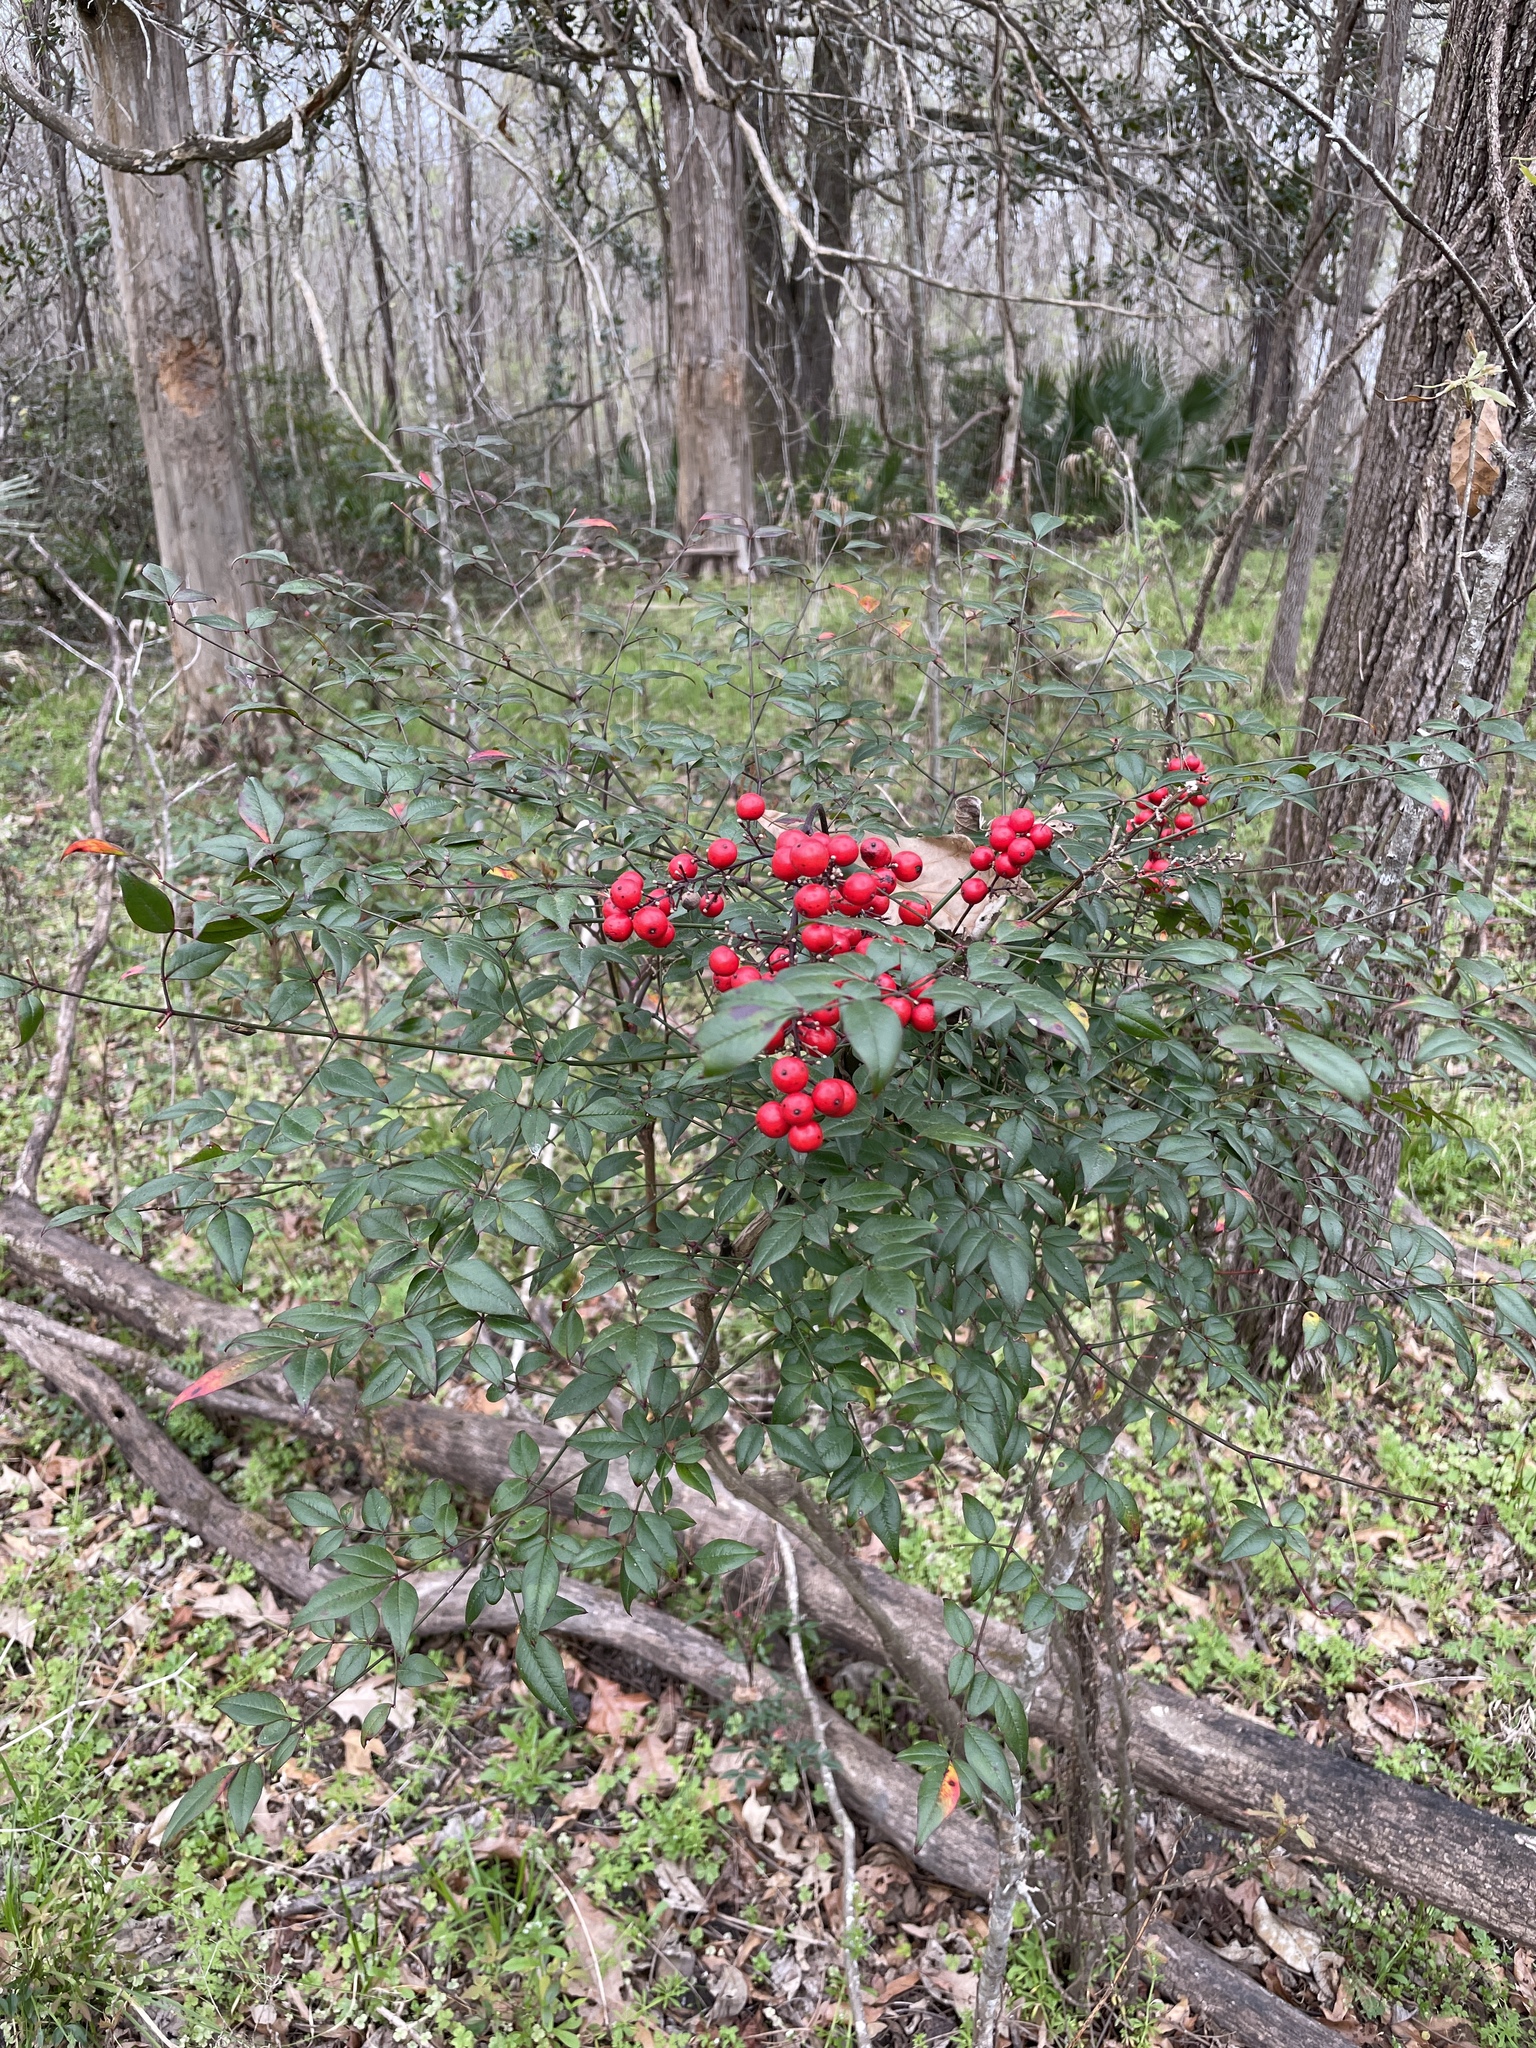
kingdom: Plantae
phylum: Tracheophyta
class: Magnoliopsida
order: Ranunculales
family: Berberidaceae
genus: Nandina
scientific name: Nandina domestica
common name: Sacred bamboo
